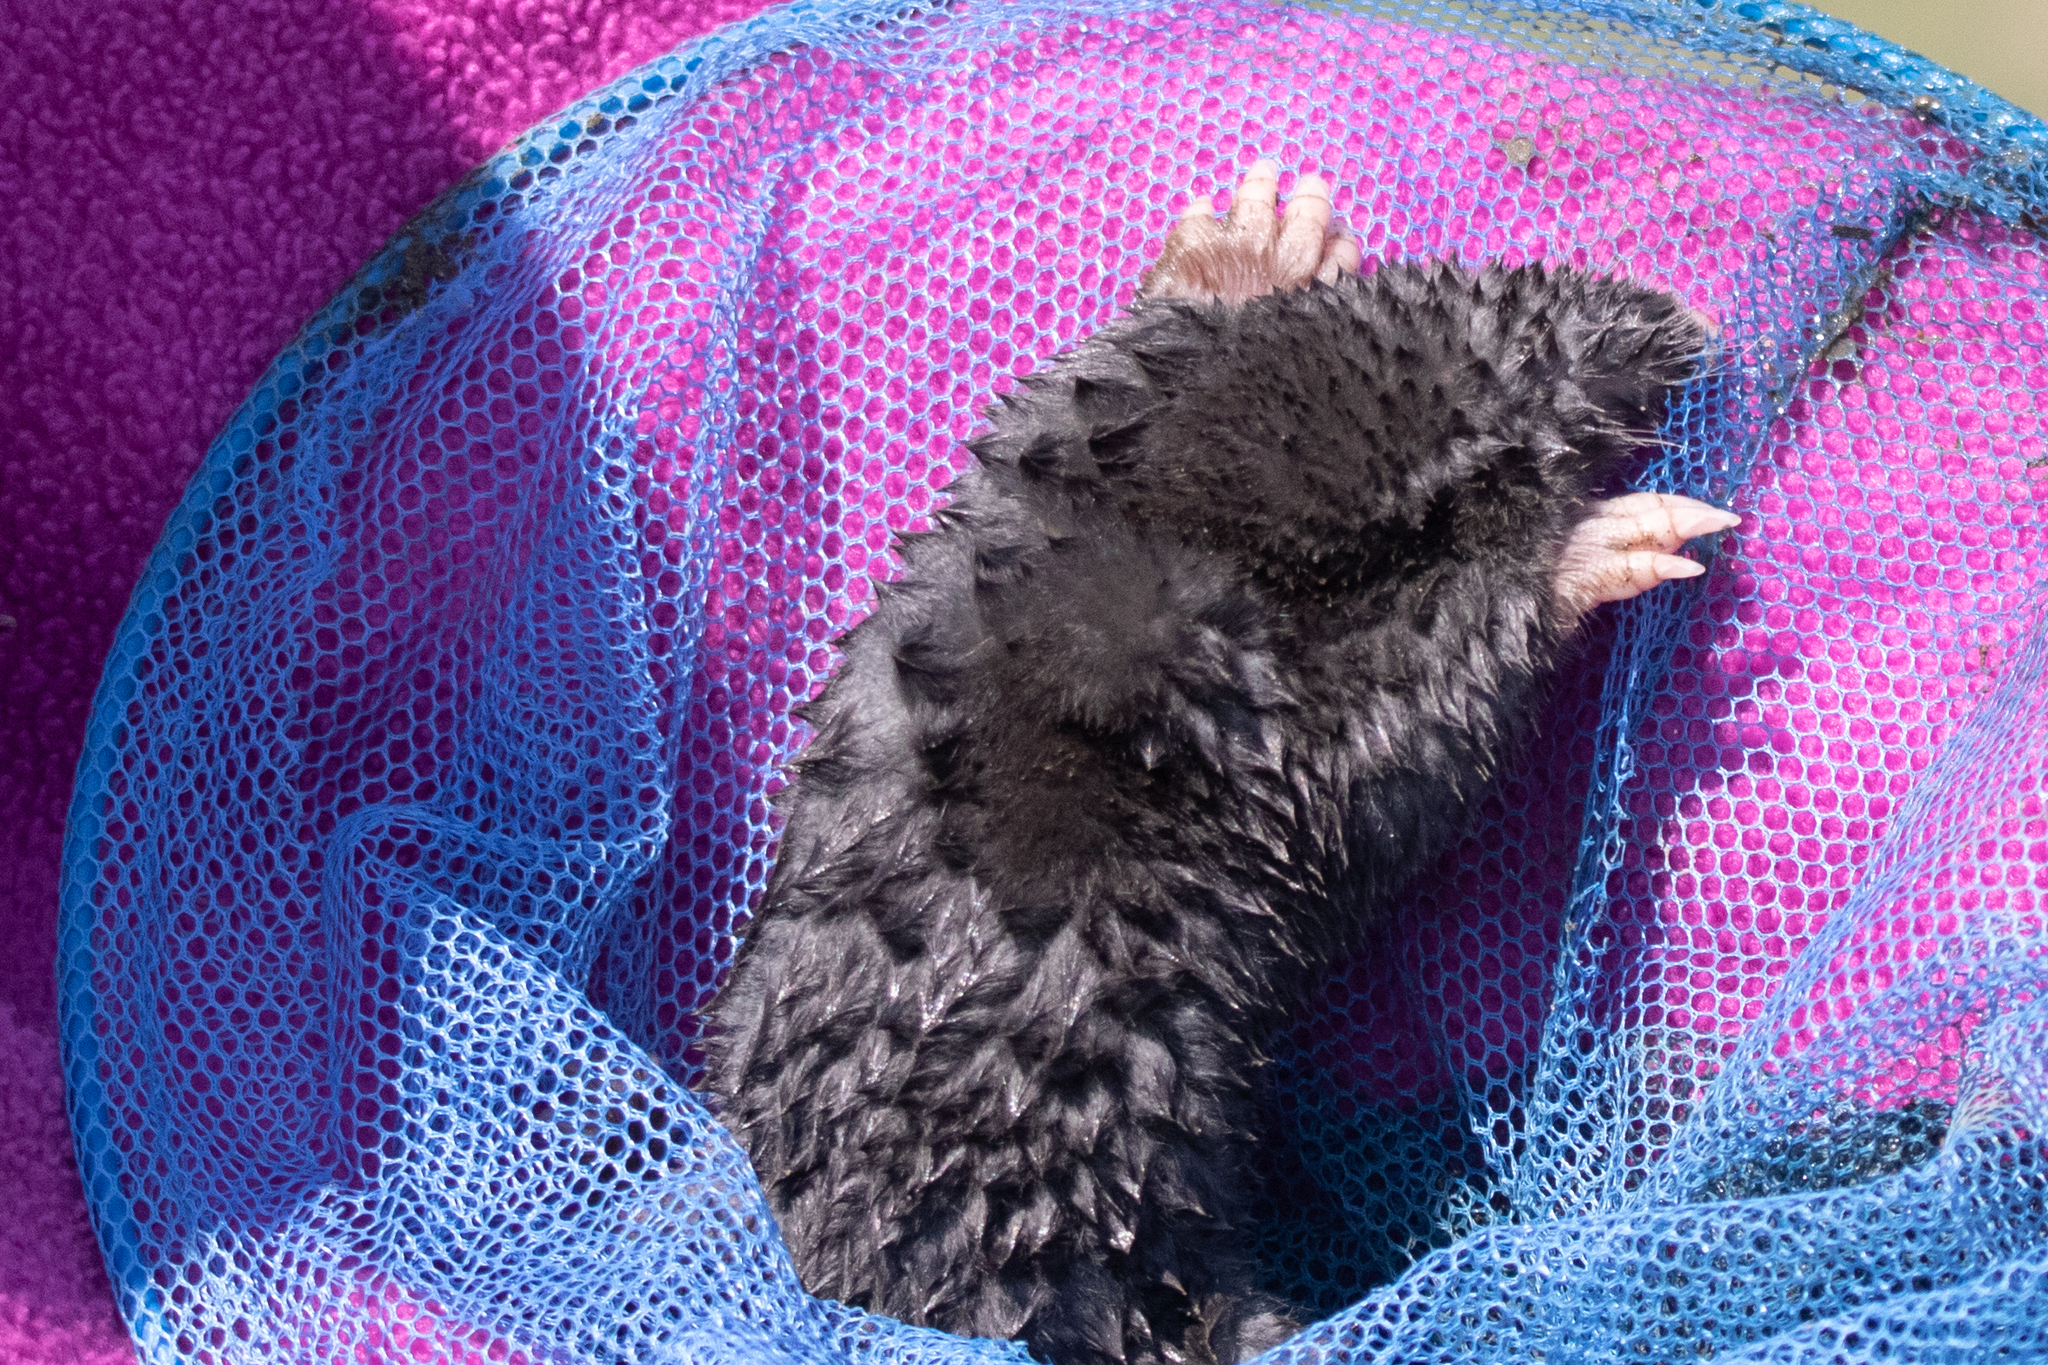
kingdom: Animalia
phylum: Chordata
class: Mammalia
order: Soricomorpha
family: Talpidae
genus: Talpa
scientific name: Talpa altaica
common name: Altai mole
